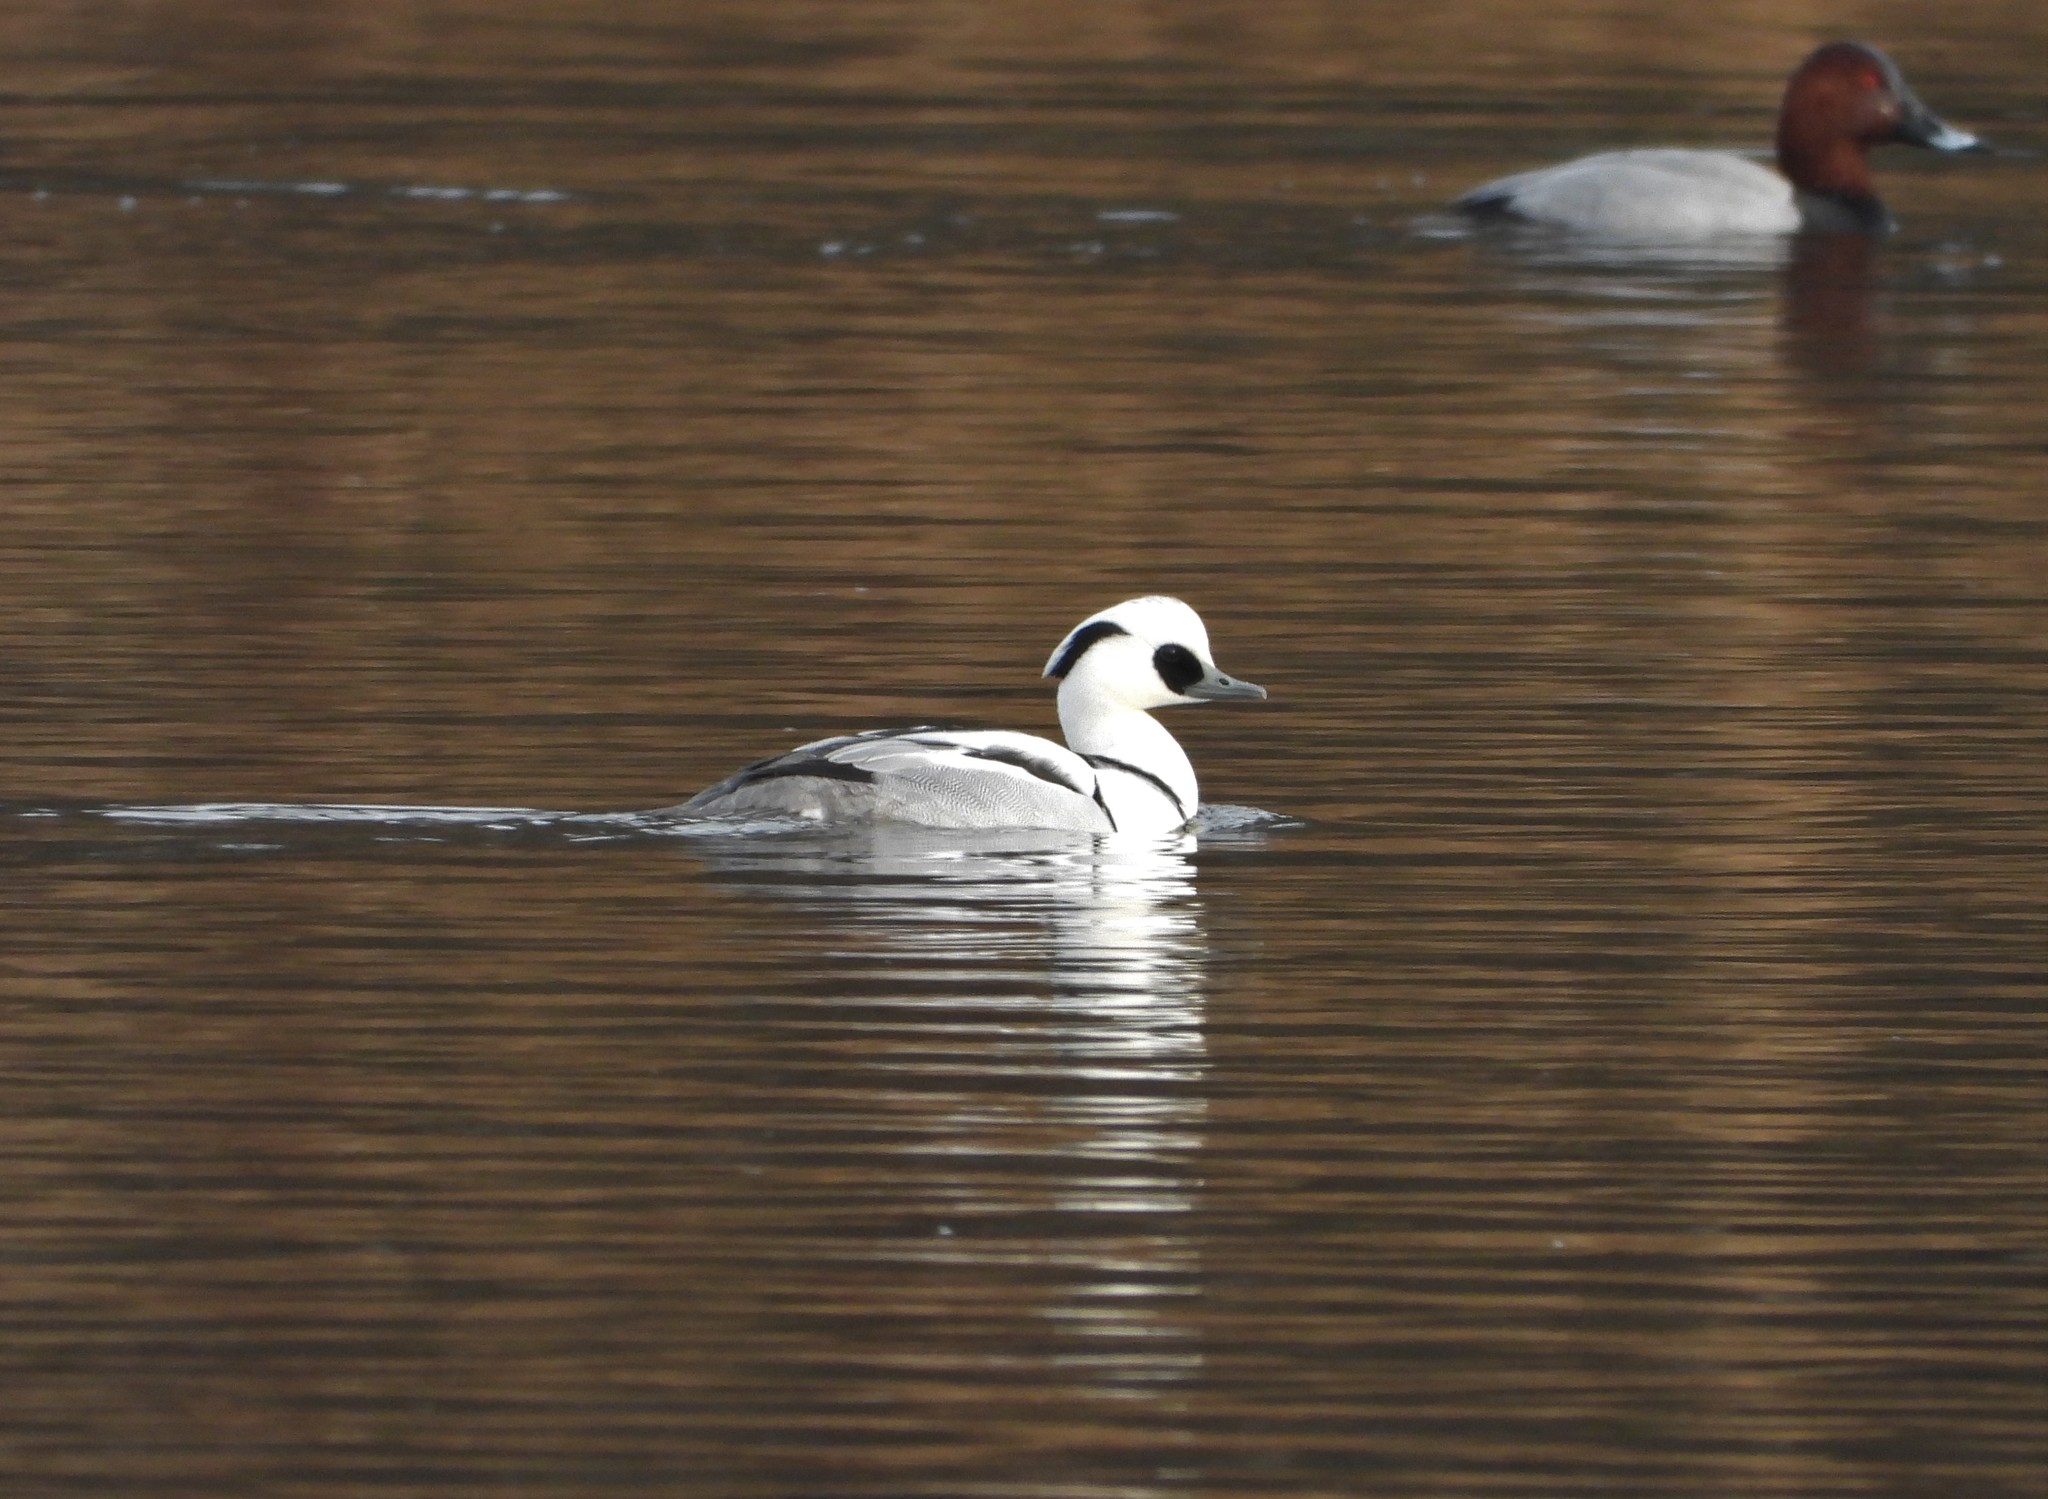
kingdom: Animalia
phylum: Chordata
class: Aves
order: Anseriformes
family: Anatidae
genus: Mergellus
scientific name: Mergellus albellus
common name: Smew
